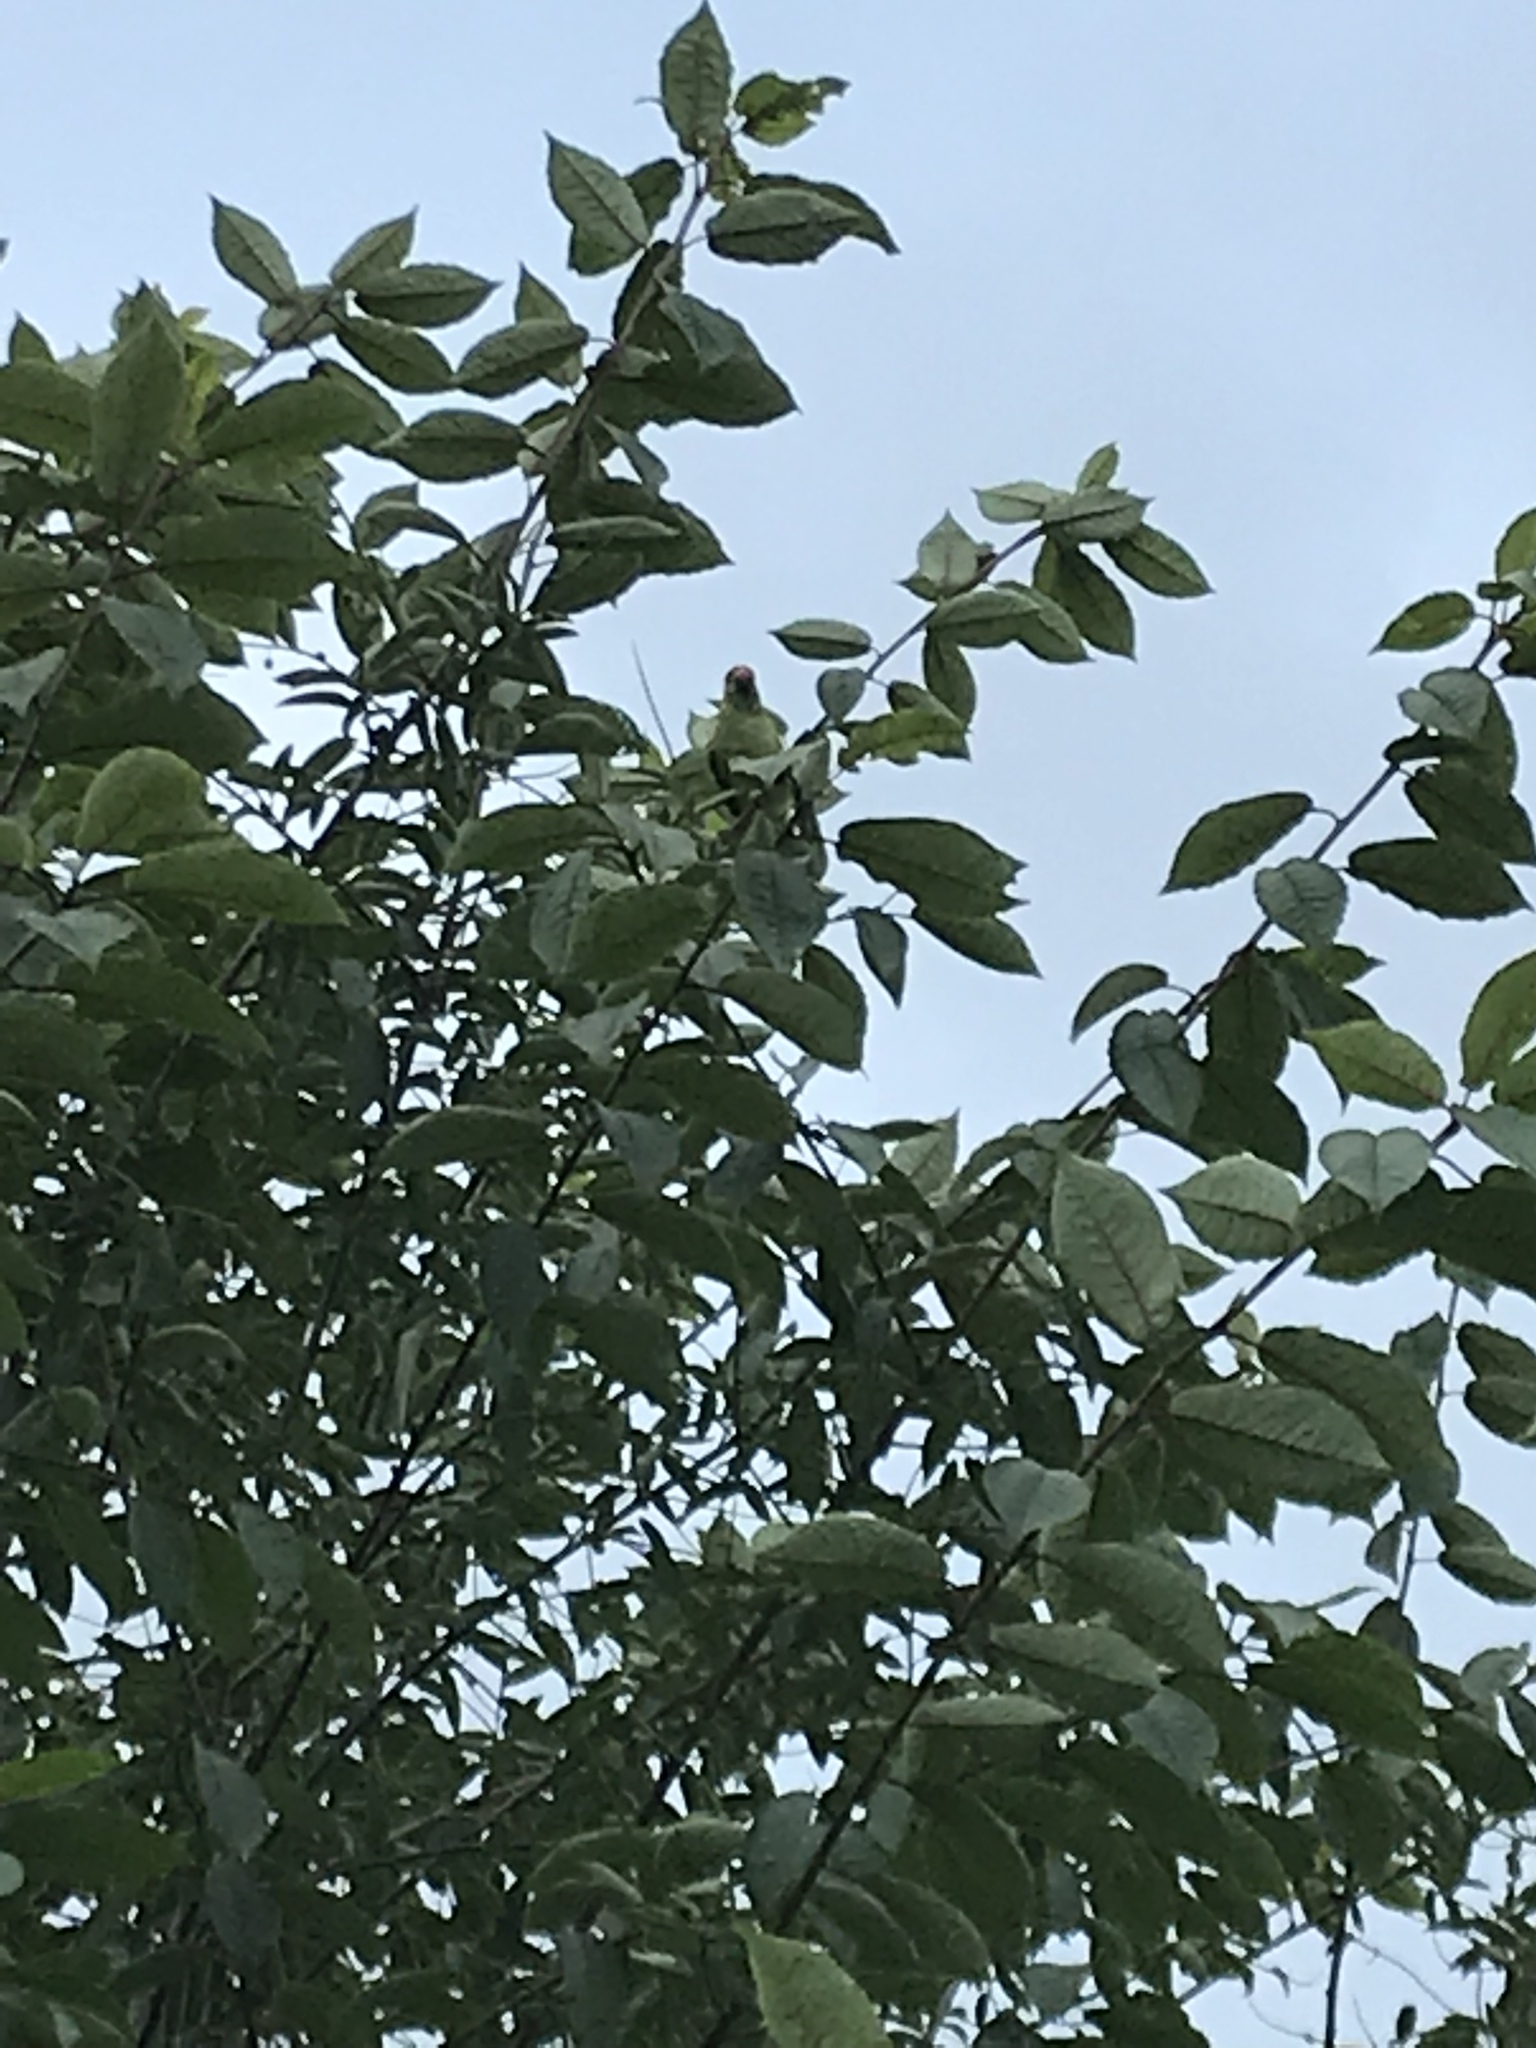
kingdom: Animalia
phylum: Chordata
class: Aves
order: Psittaciformes
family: Psittacidae
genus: Psittacula
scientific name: Psittacula krameri
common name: Rose-ringed parakeet
